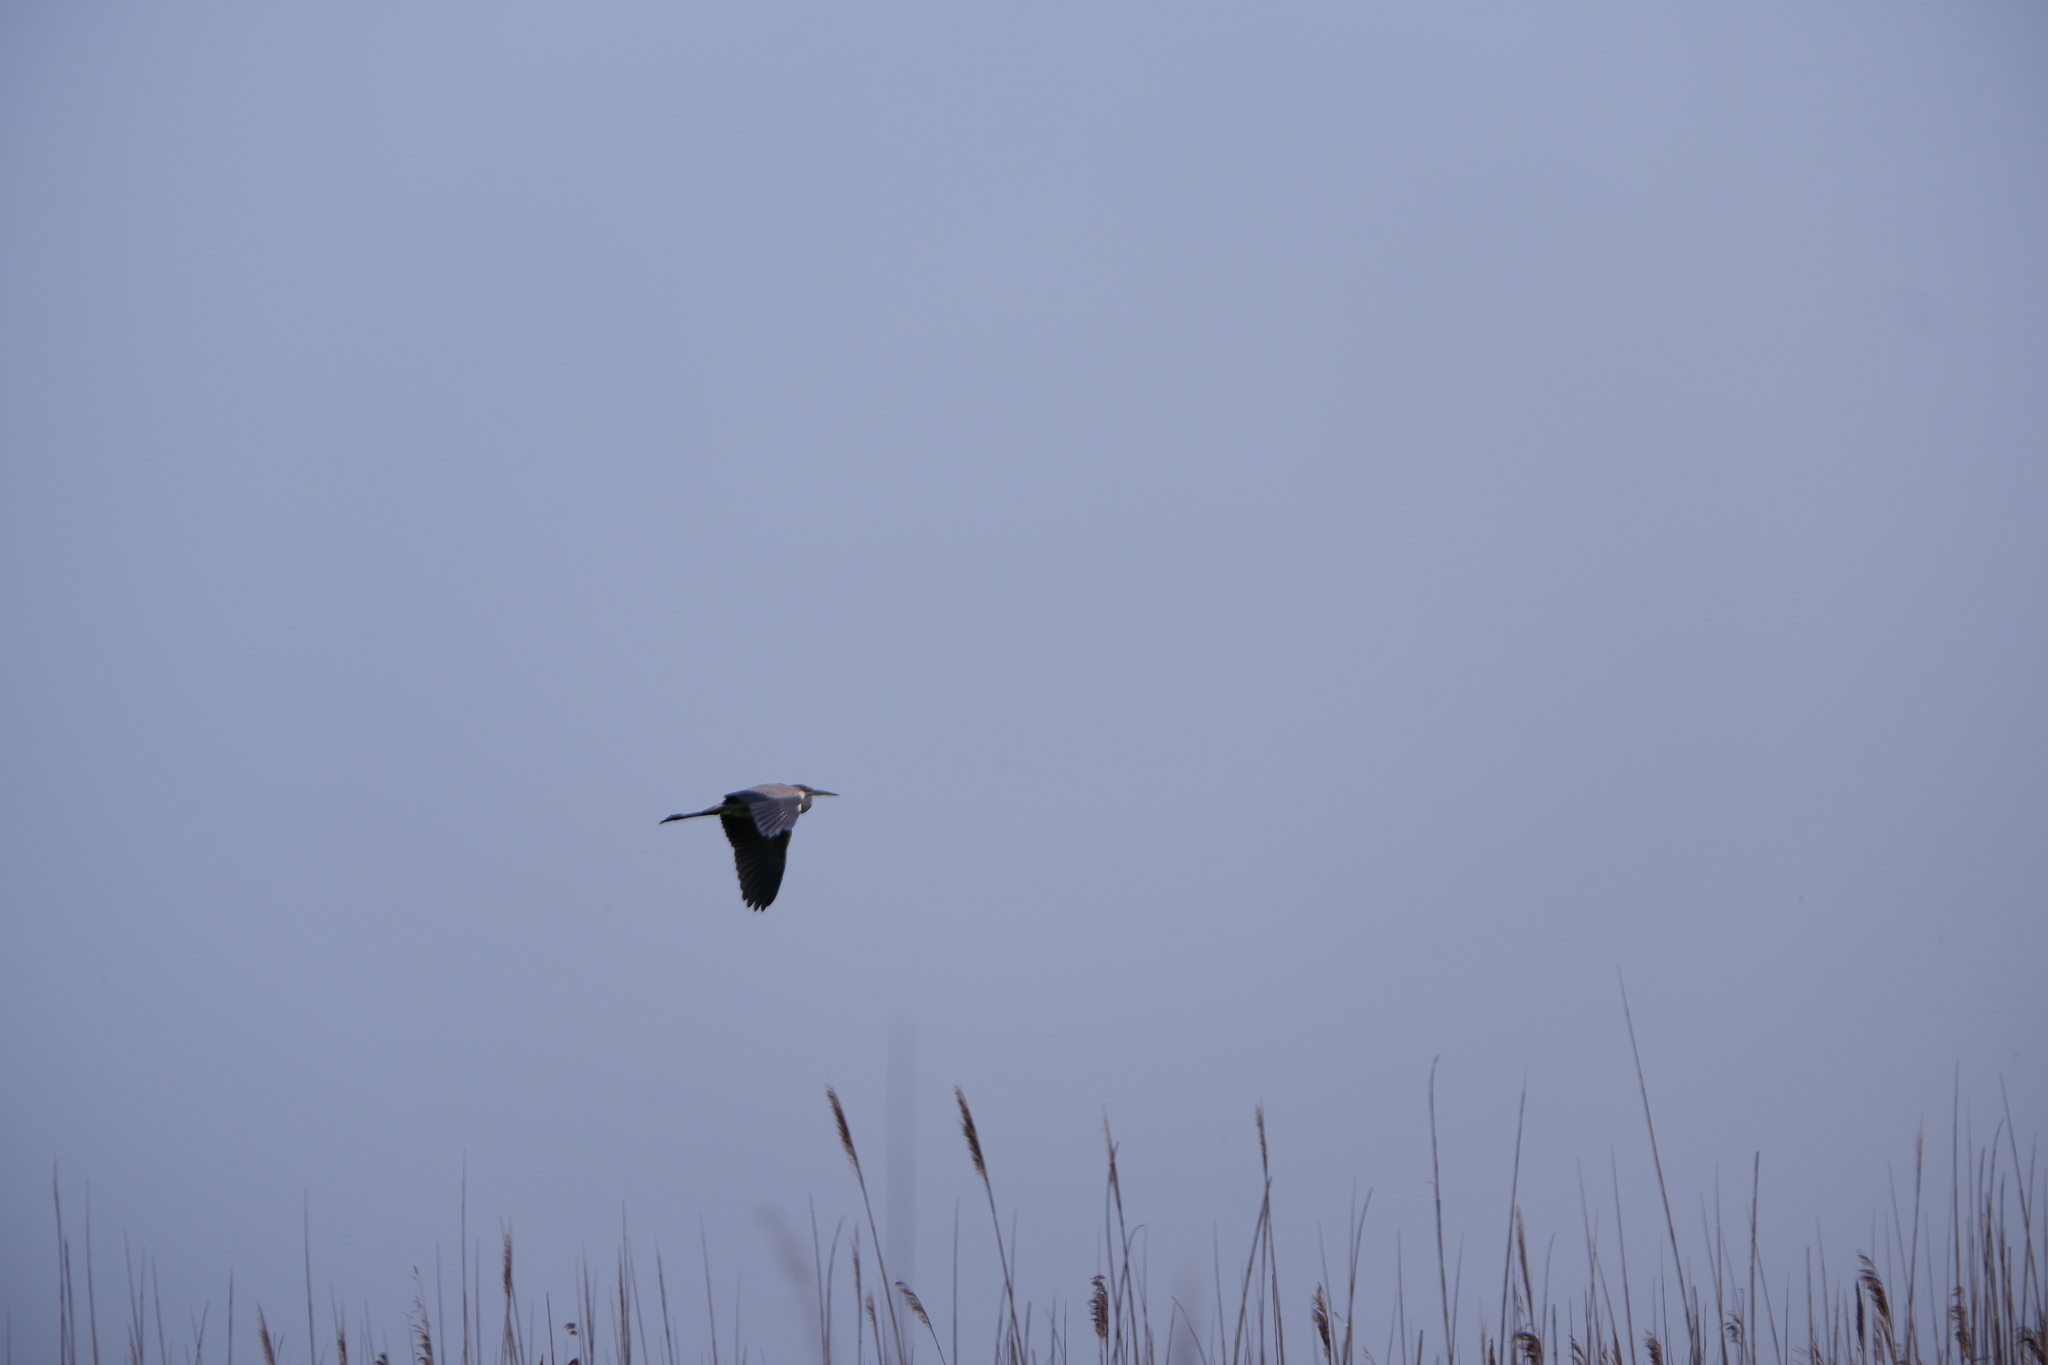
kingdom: Animalia
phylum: Chordata
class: Aves
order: Pelecaniformes
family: Ardeidae
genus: Ardea
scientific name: Ardea herodias
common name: Great blue heron
